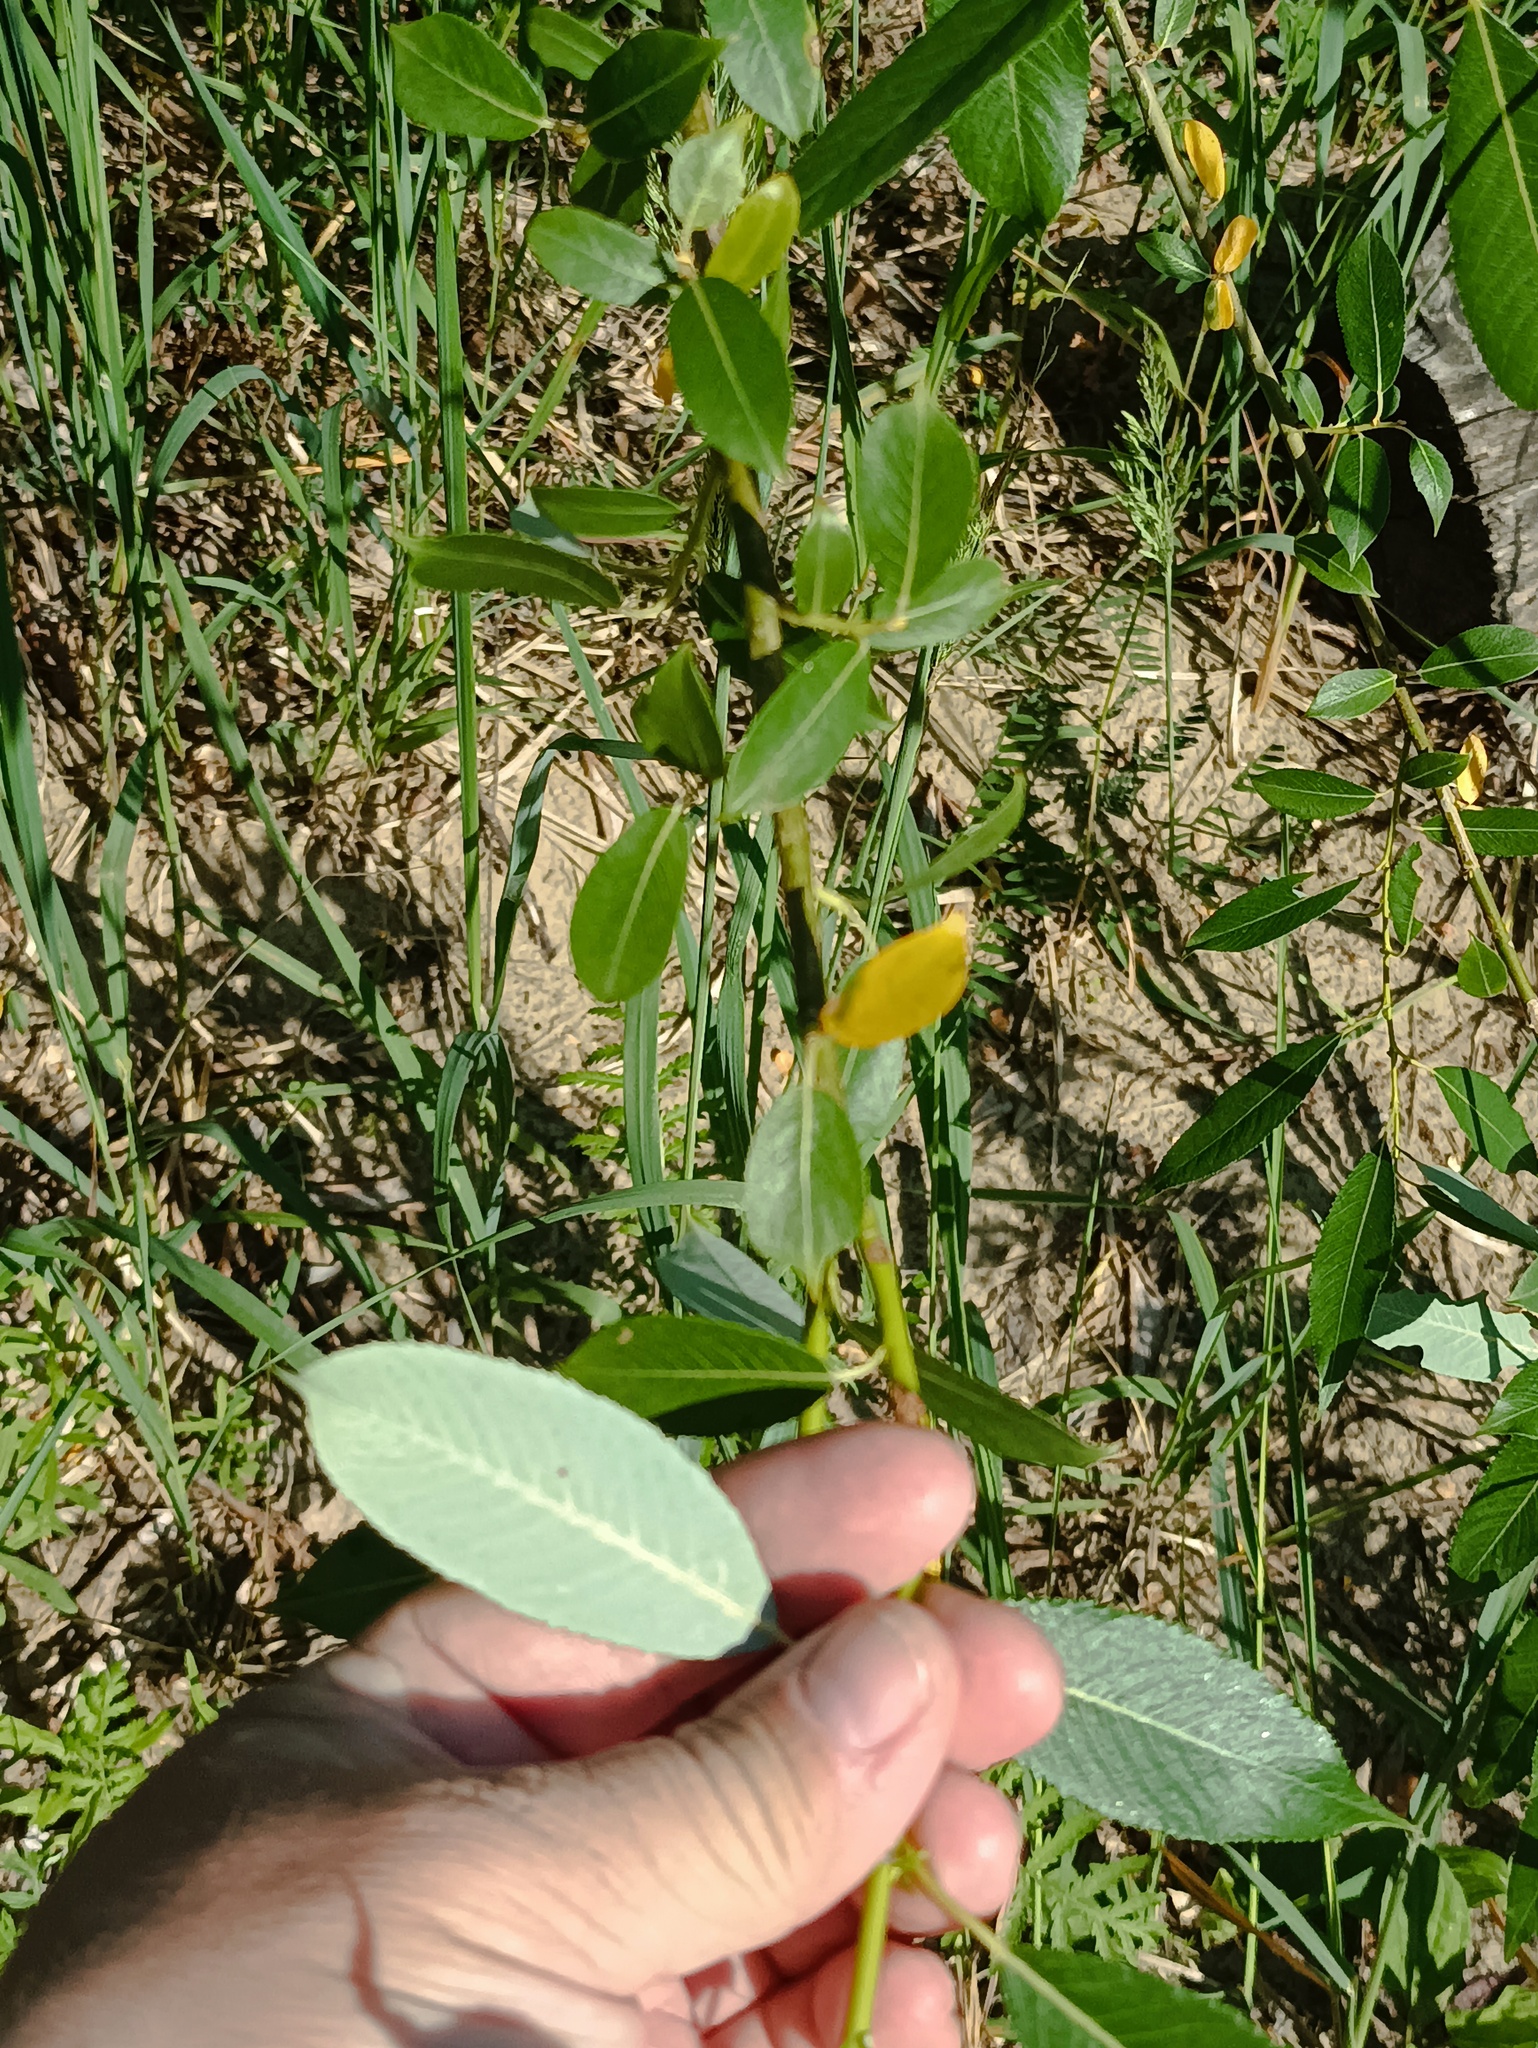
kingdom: Plantae
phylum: Tracheophyta
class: Magnoliopsida
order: Malpighiales
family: Salicaceae
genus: Salix
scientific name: Salix triandra
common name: Almond willow
